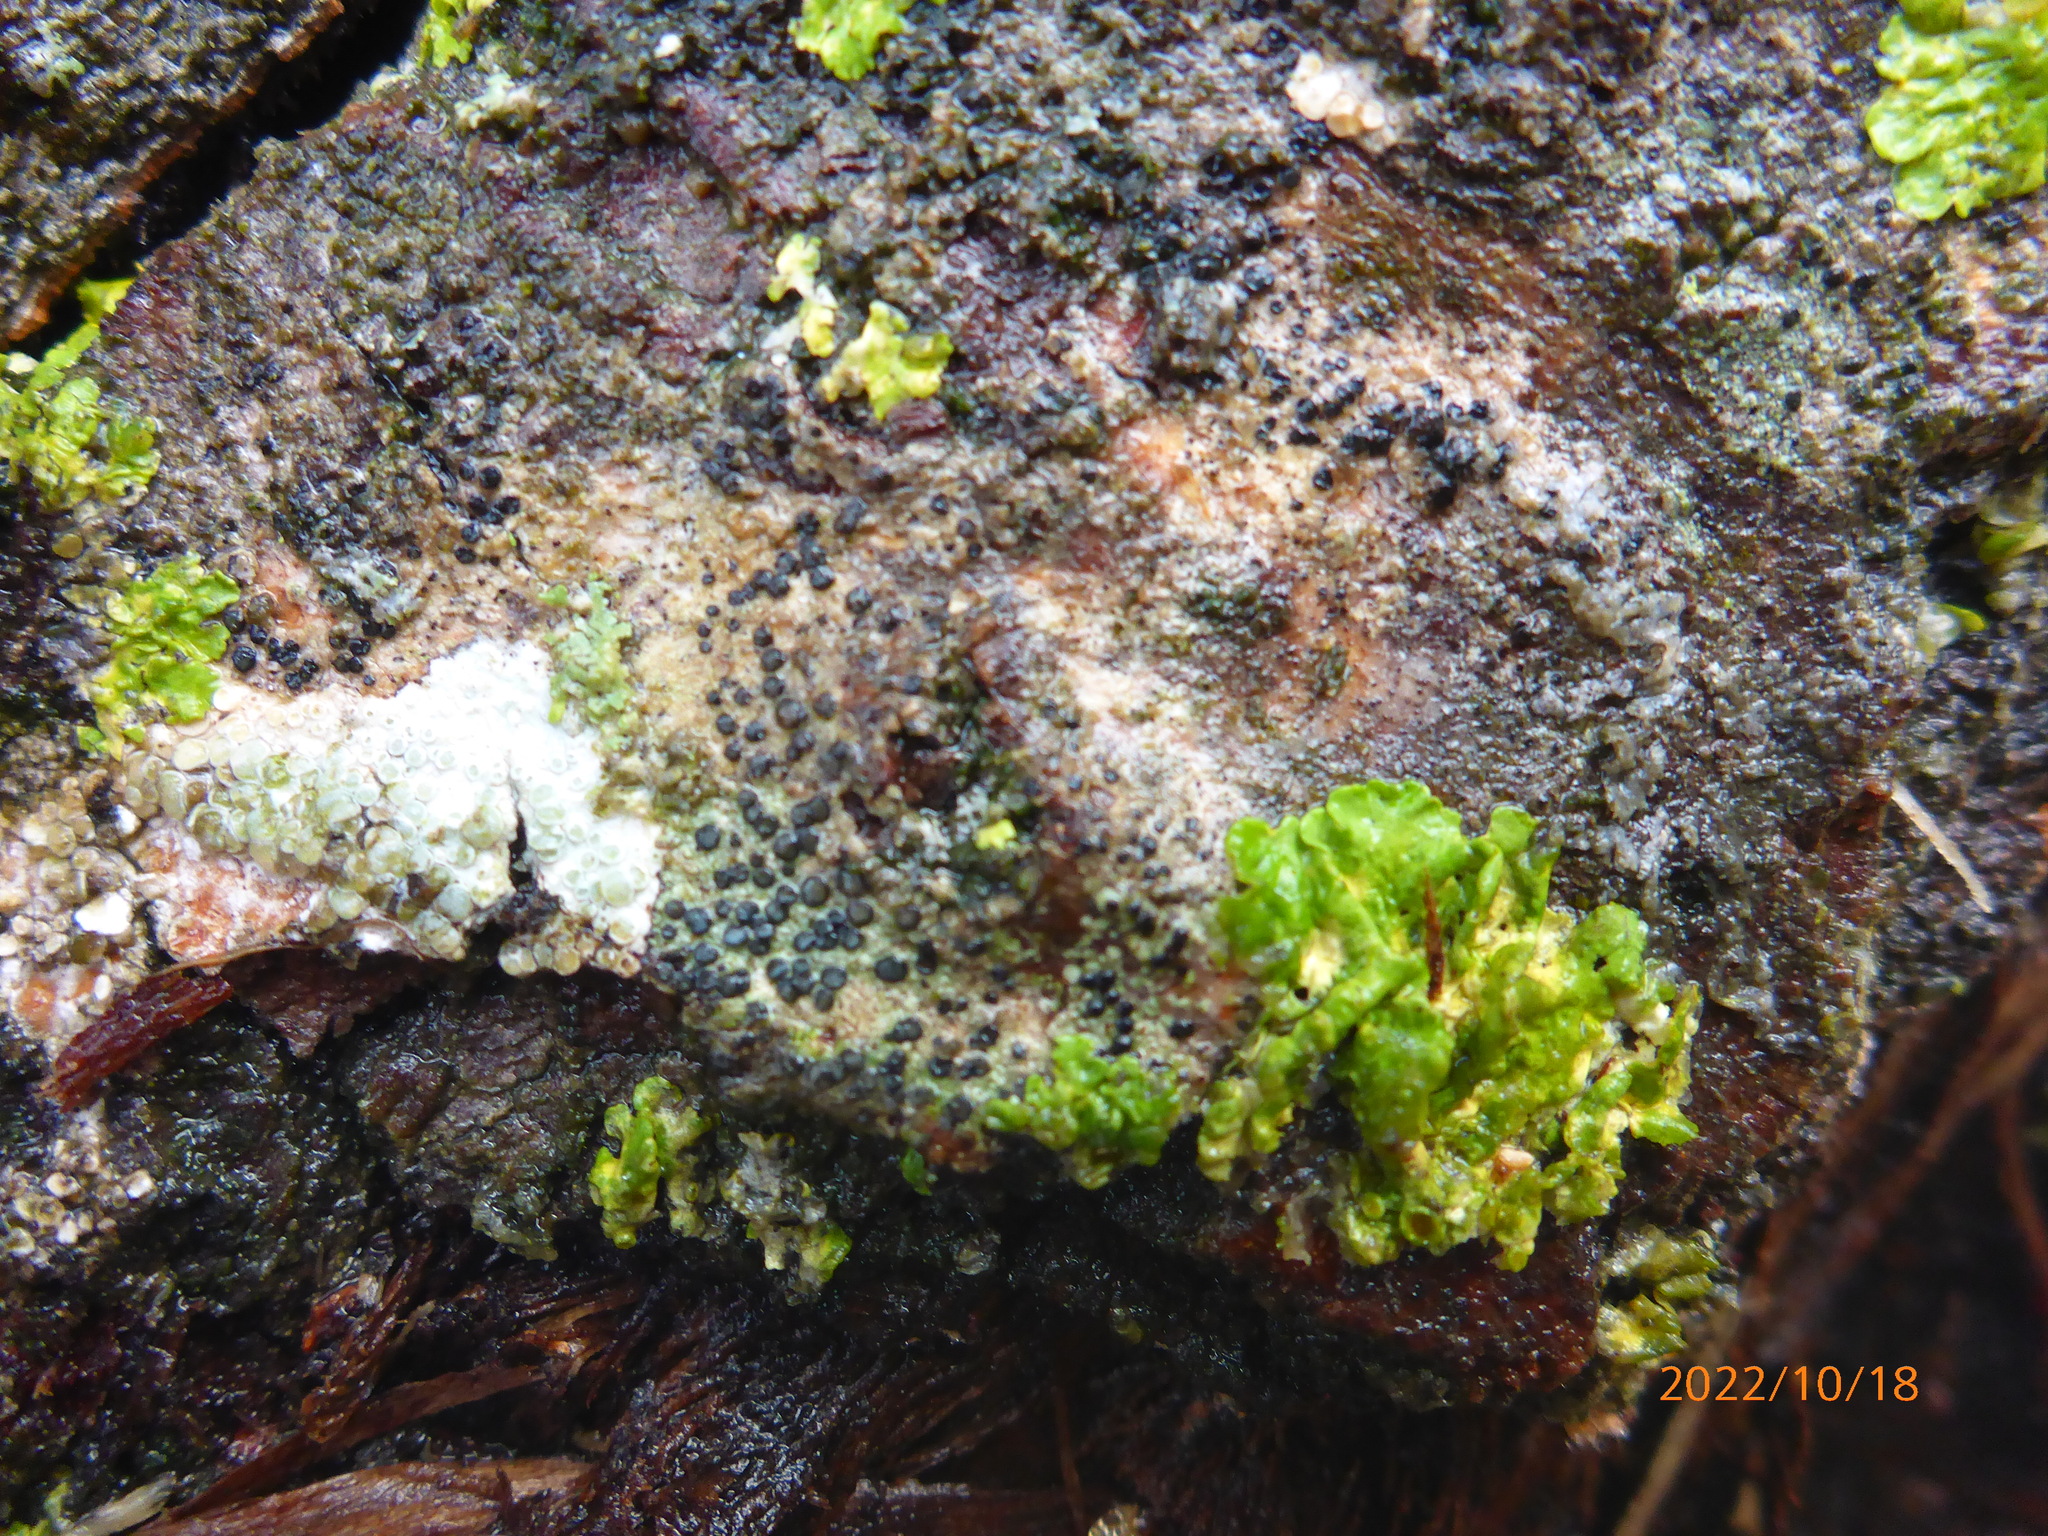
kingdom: Fungi
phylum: Ascomycota
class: Lecanoromycetes
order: Lecanorales
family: Lecanoraceae
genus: Lecidella
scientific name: Lecidella elaeochroma
